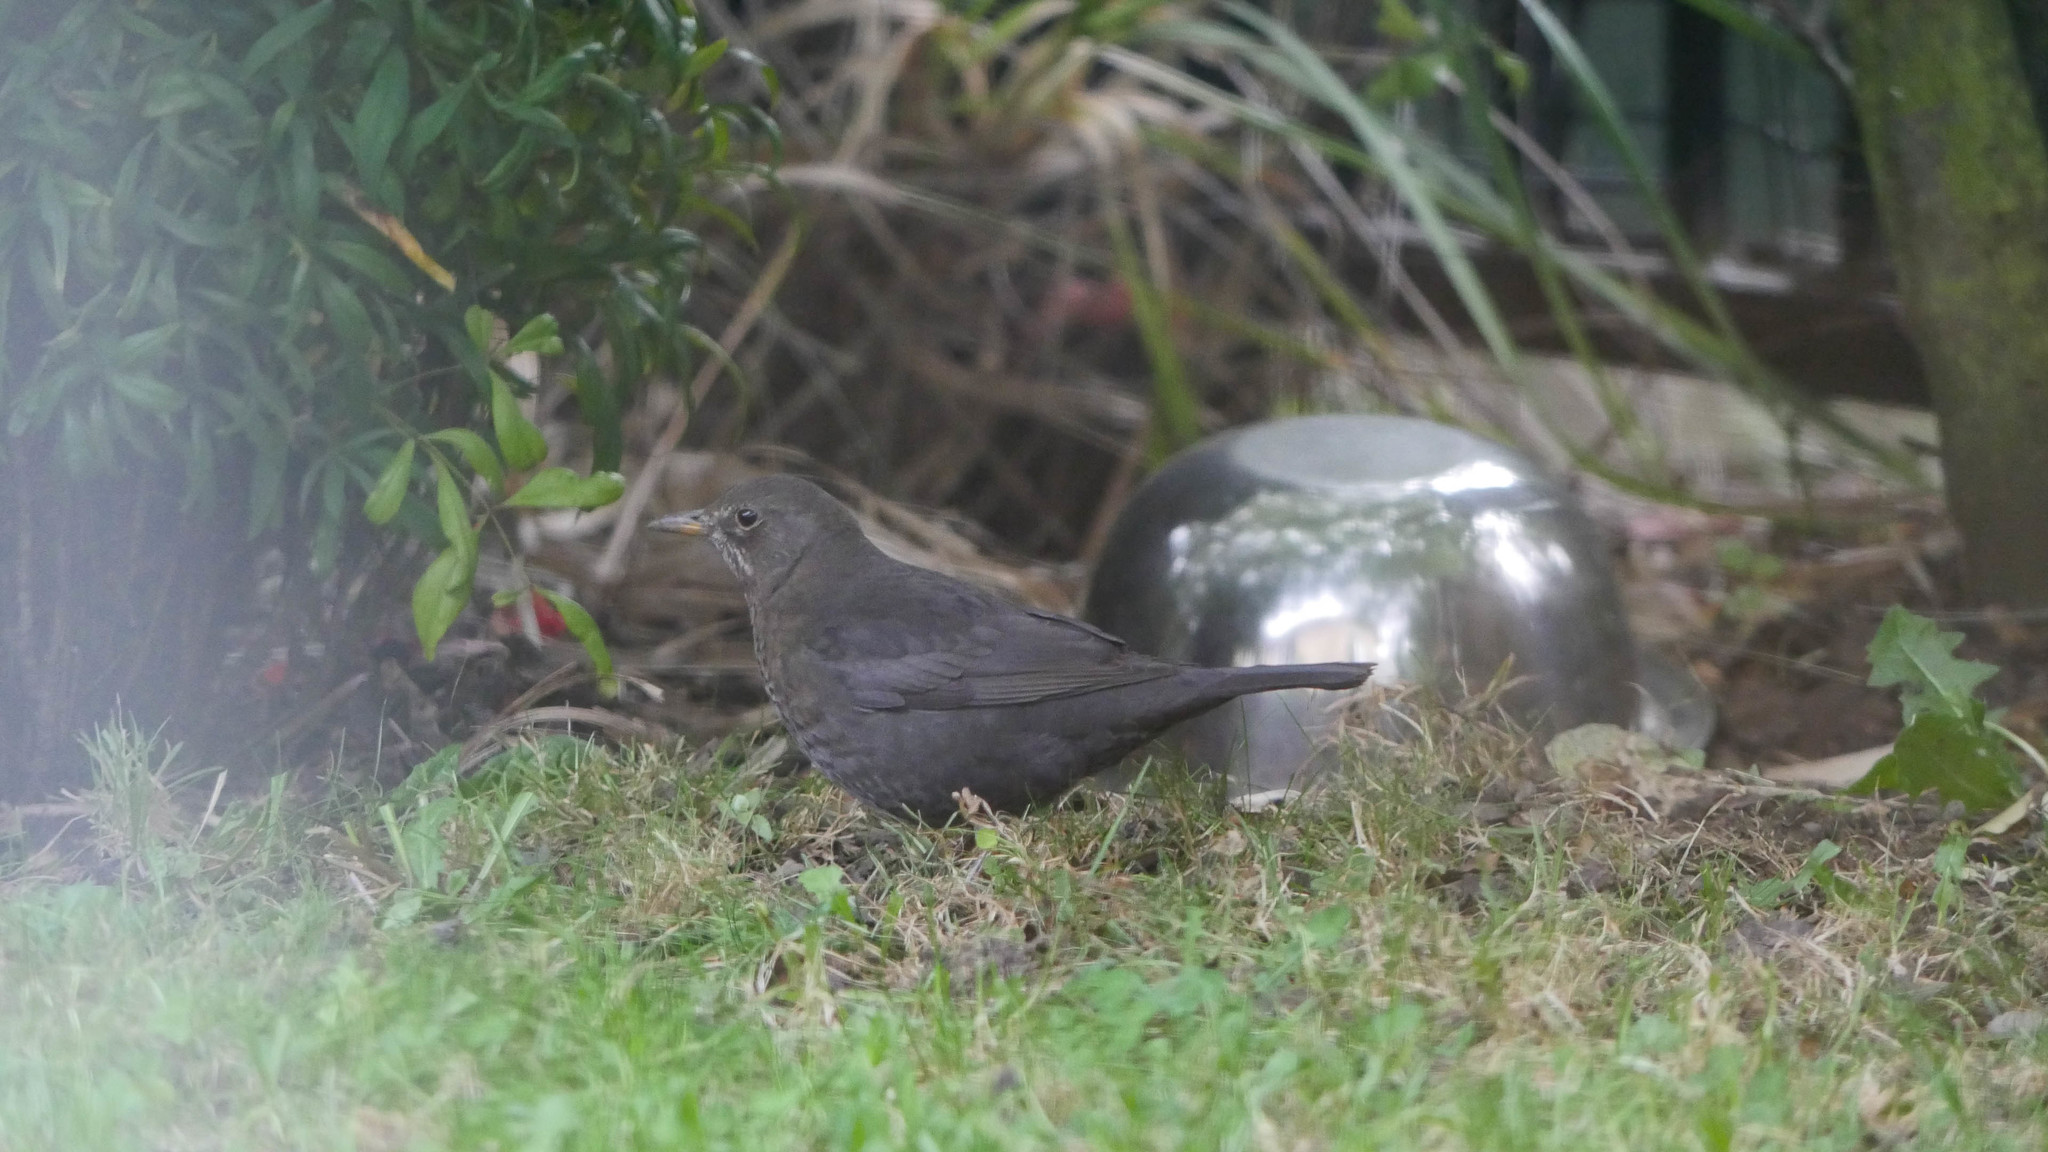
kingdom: Animalia
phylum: Chordata
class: Aves
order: Passeriformes
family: Turdidae
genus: Turdus
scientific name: Turdus merula
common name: Common blackbird
